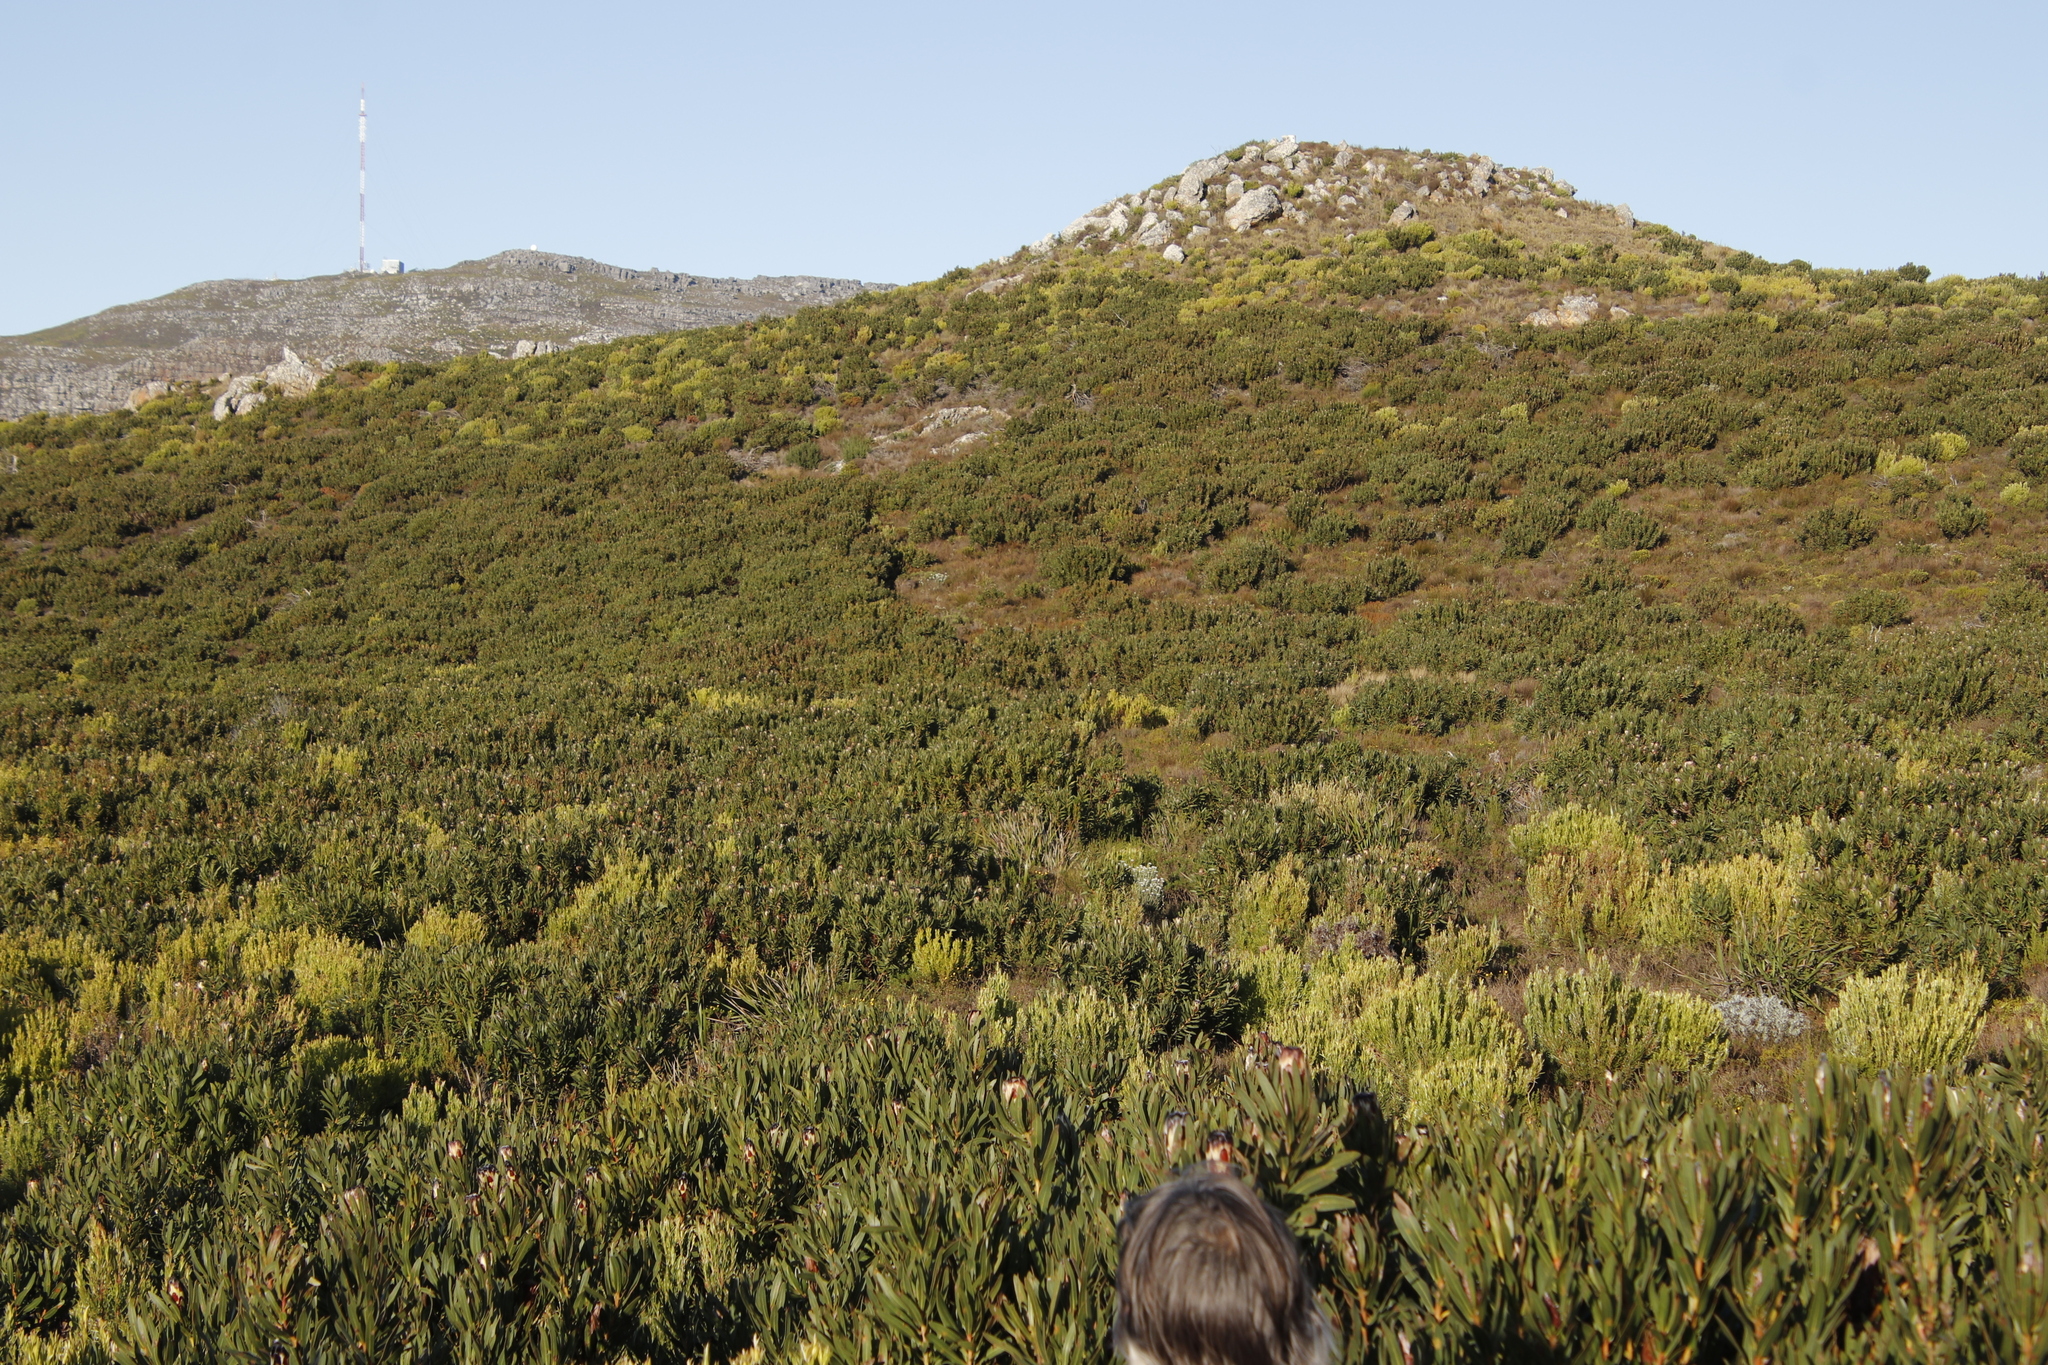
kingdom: Plantae
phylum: Tracheophyta
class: Magnoliopsida
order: Proteales
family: Proteaceae
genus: Protea
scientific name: Protea lepidocarpodendron
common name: Black-bearded protea
